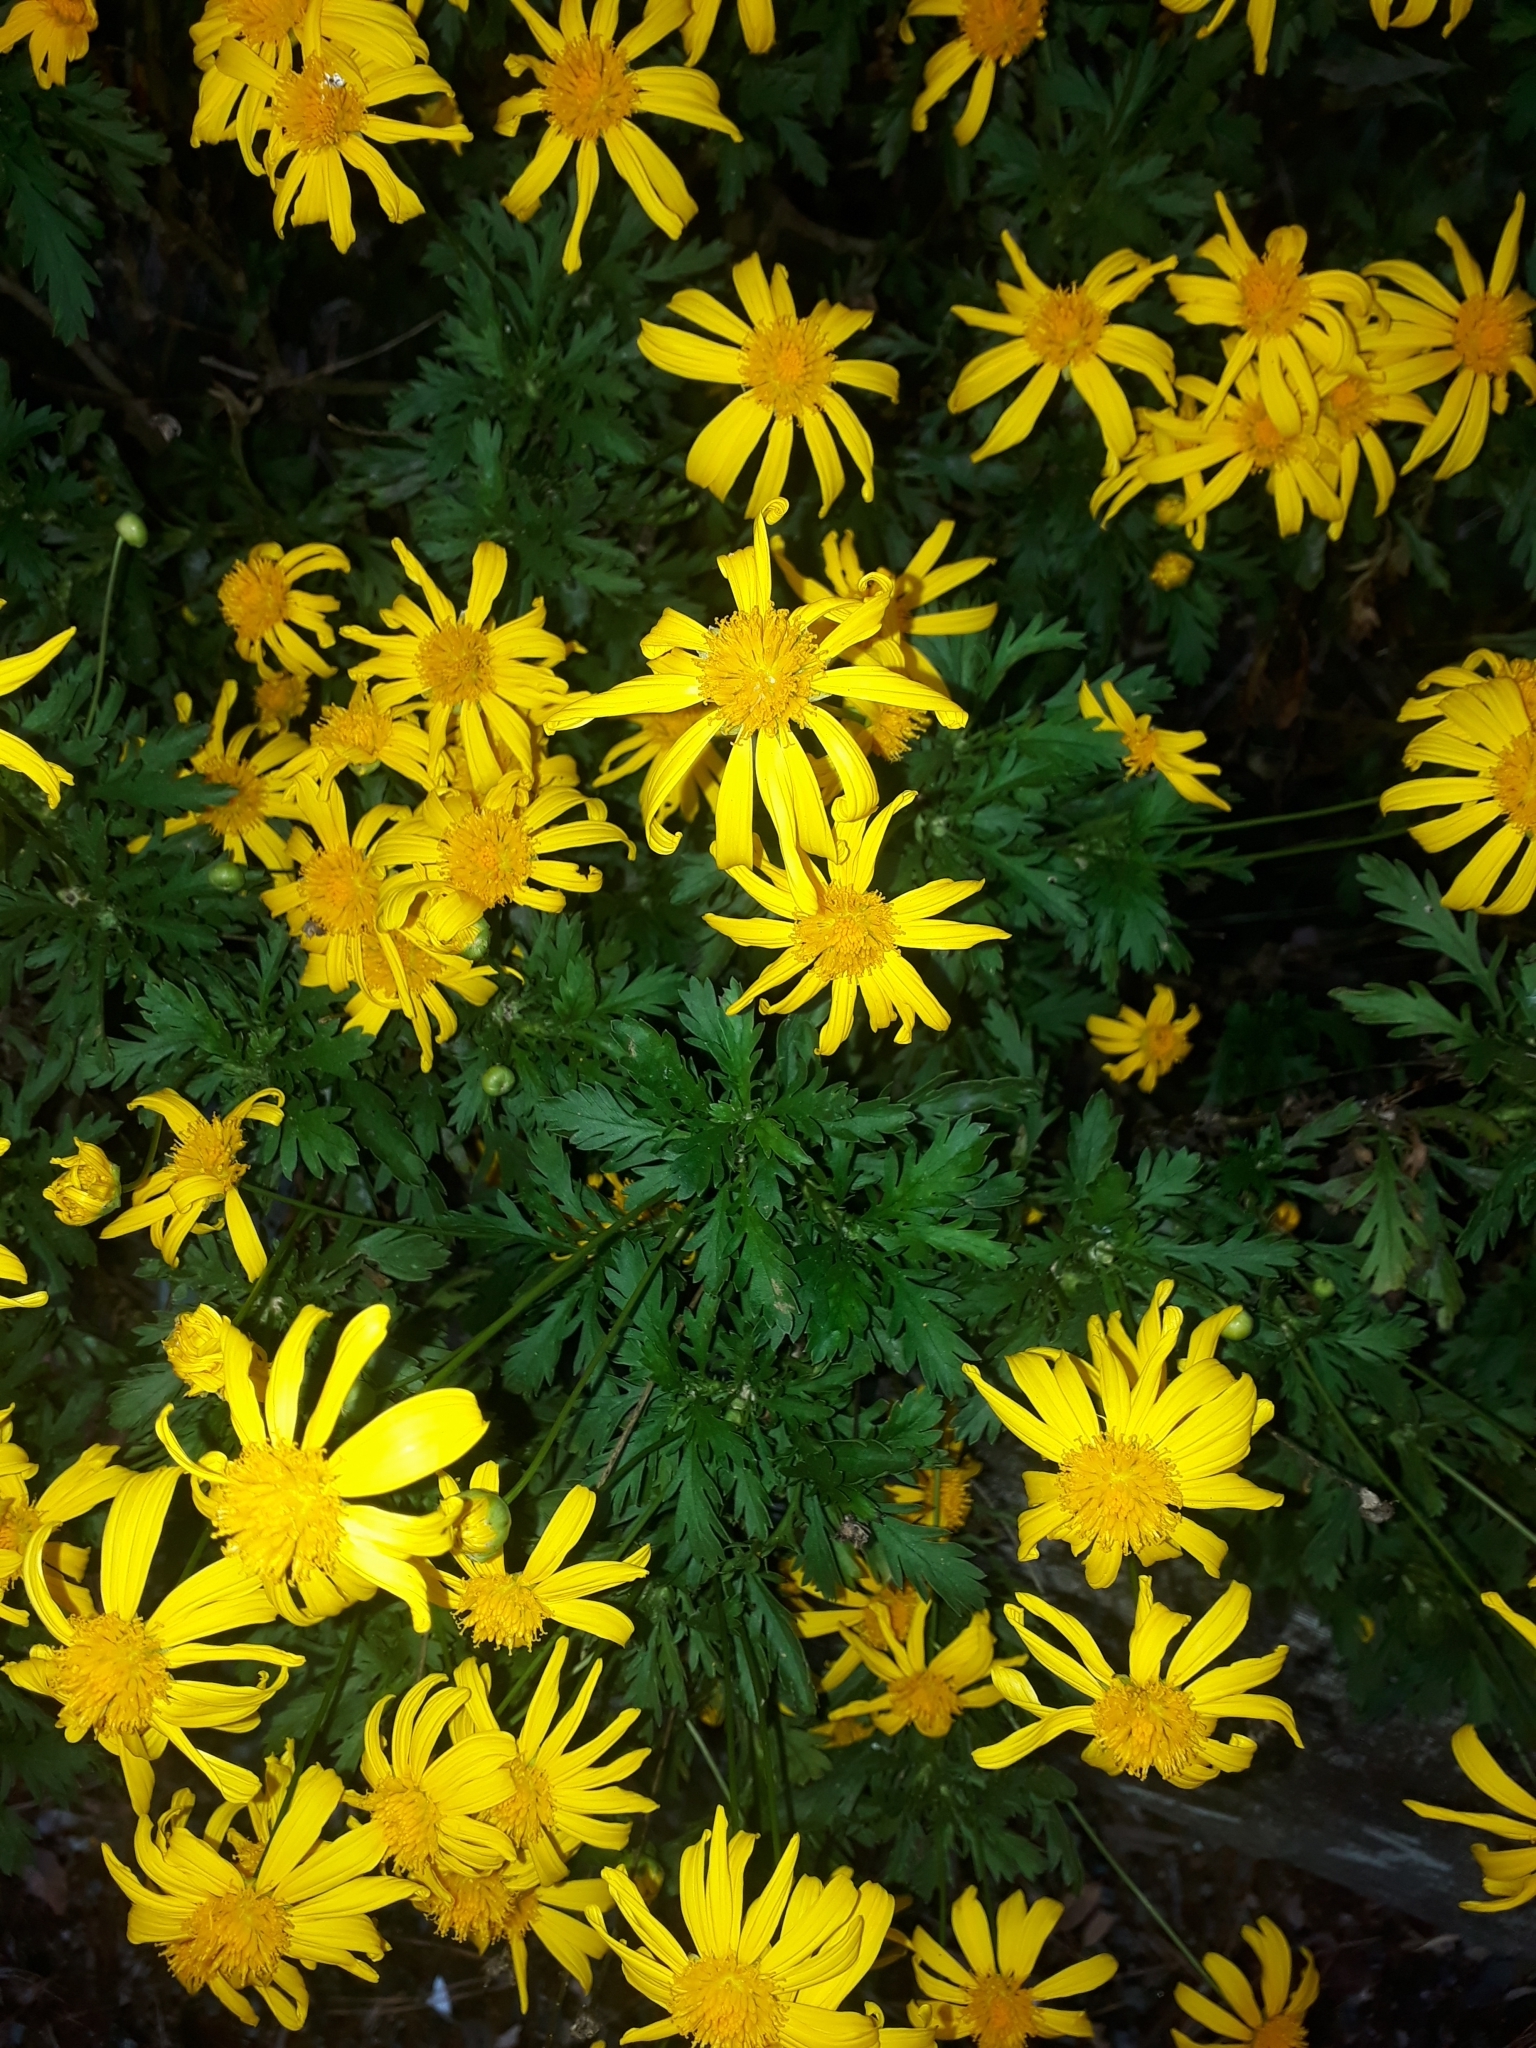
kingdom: Plantae
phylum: Tracheophyta
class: Magnoliopsida
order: Asterales
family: Asteraceae
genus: Euryops
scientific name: Euryops chrysanthemoides
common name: Bull's eye
